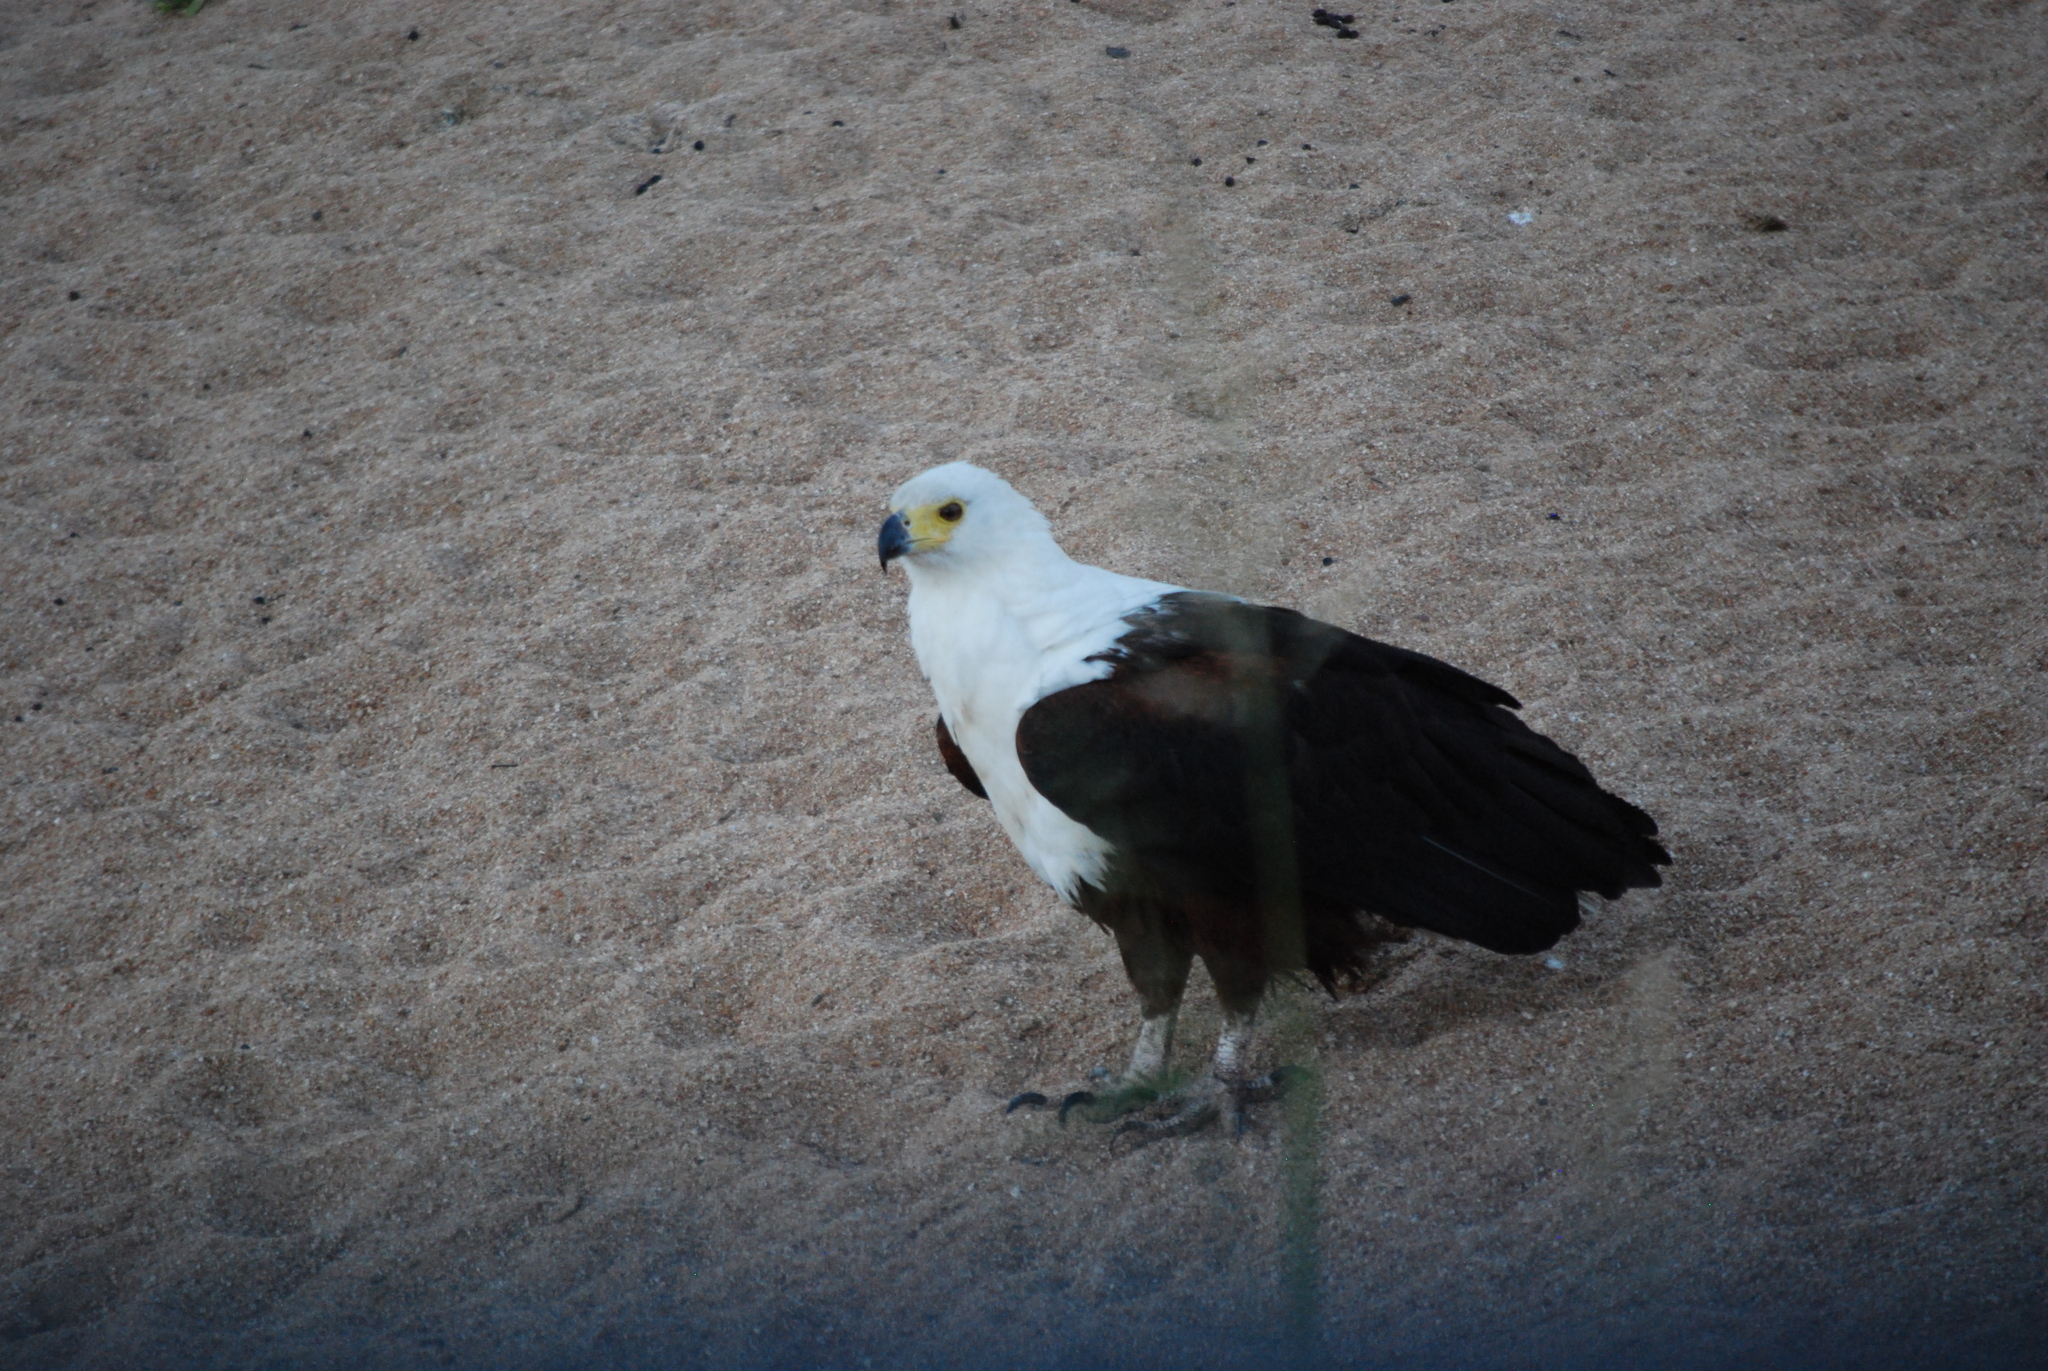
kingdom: Animalia
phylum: Chordata
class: Aves
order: Accipitriformes
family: Accipitridae
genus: Haliaeetus
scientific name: Haliaeetus vocifer
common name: African fish eagle
